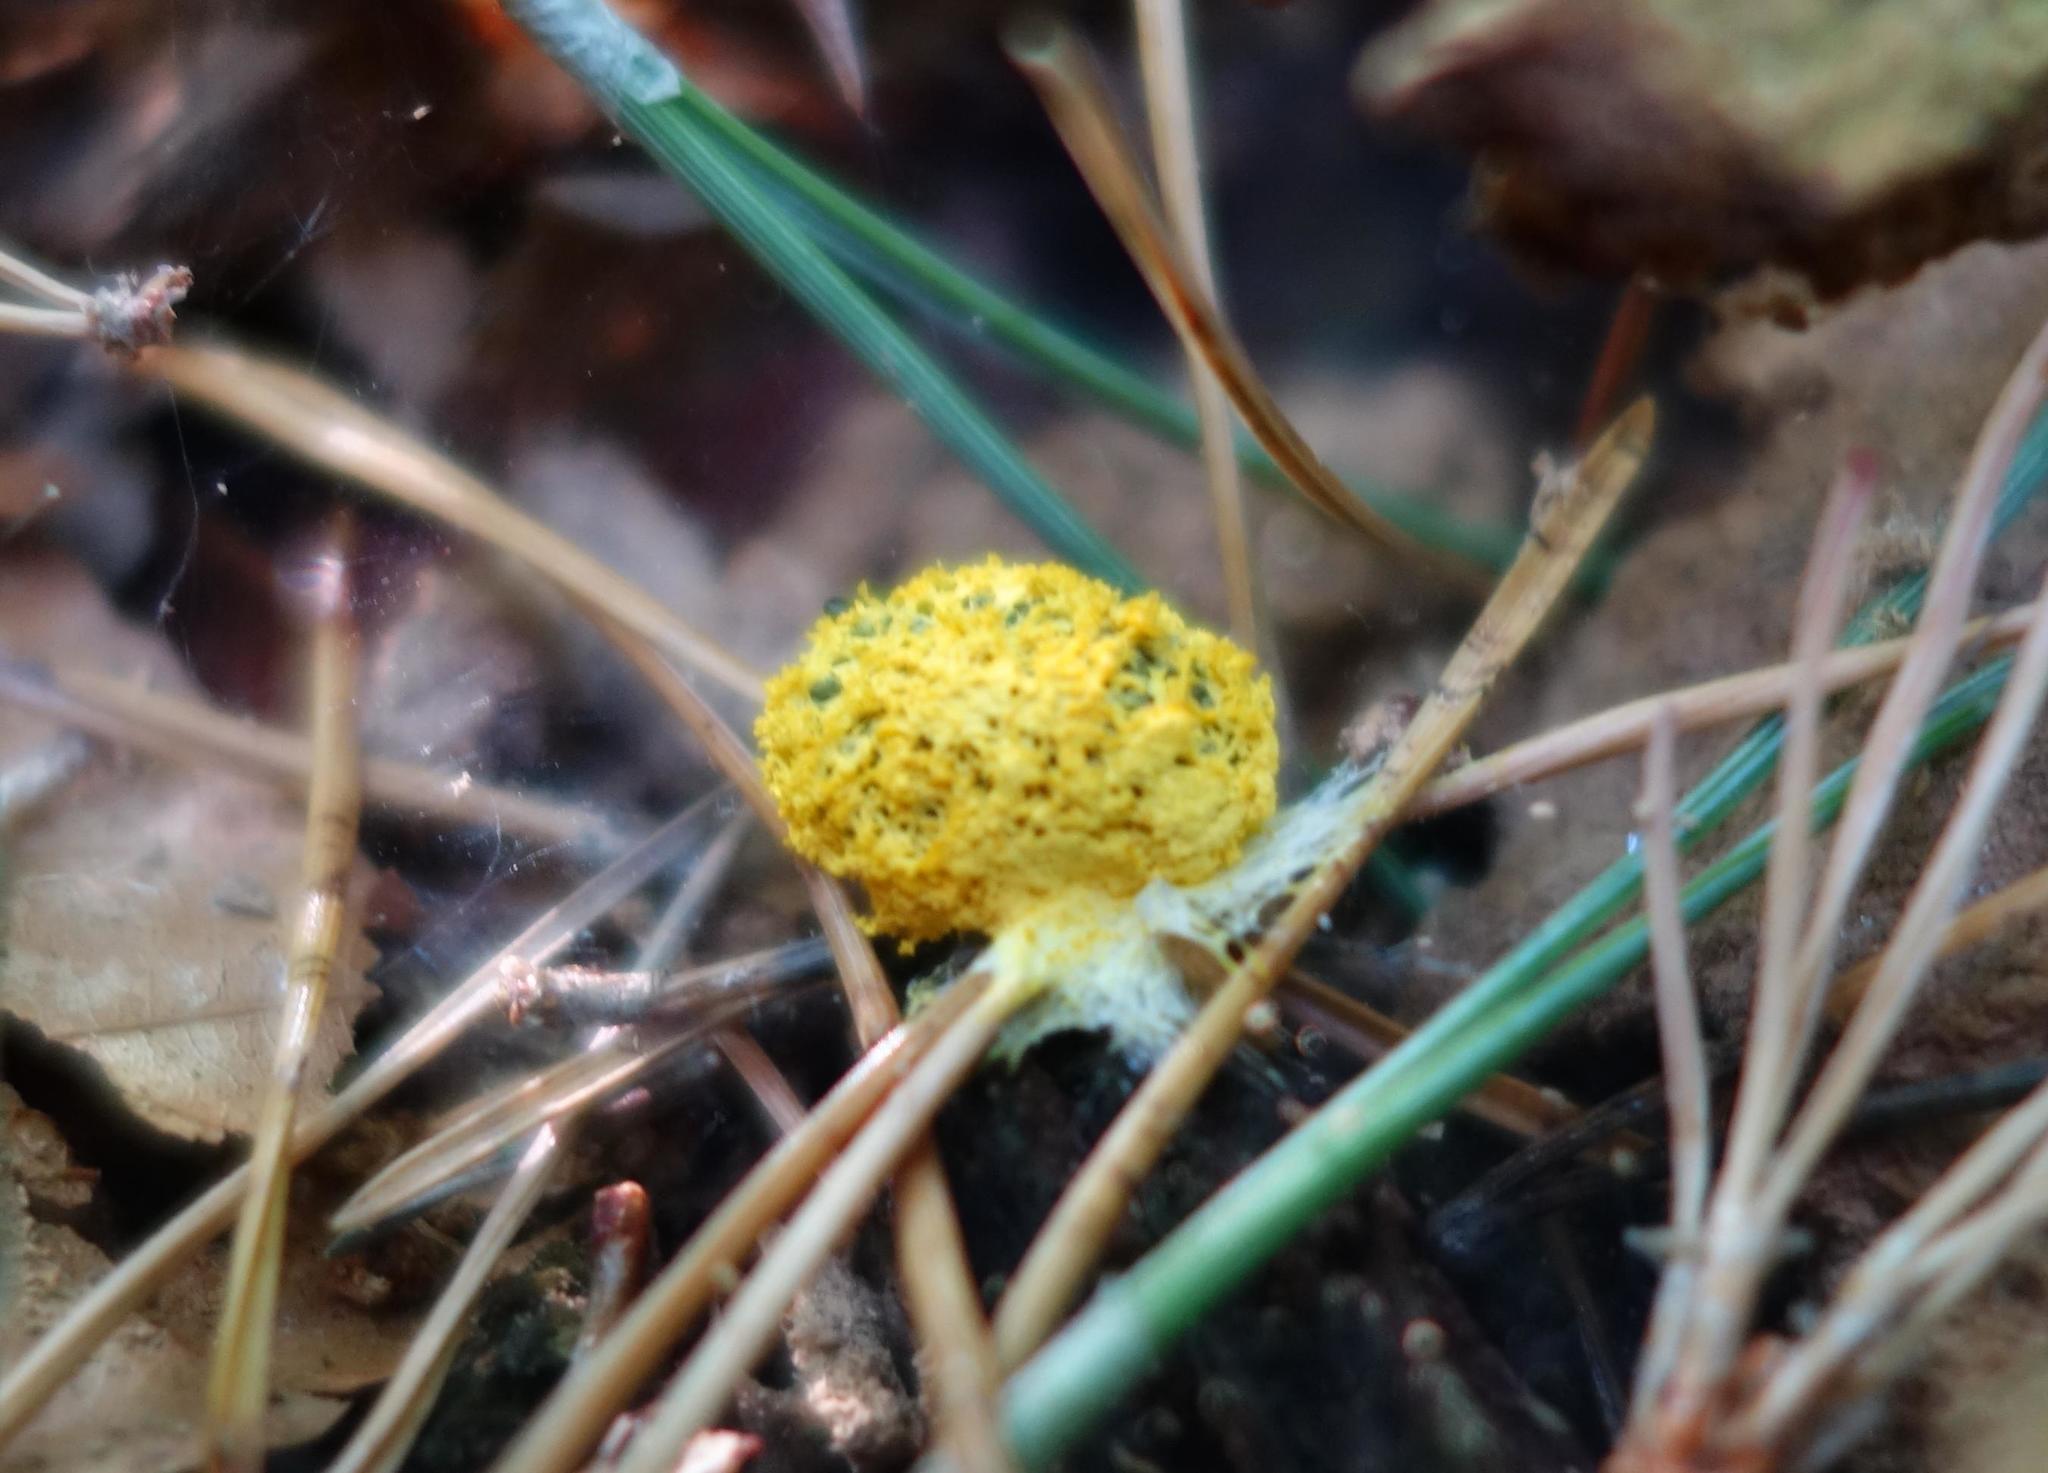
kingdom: Protozoa
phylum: Mycetozoa
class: Myxomycetes
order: Physarales
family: Physaraceae
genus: Fuligo
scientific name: Fuligo septica
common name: Dog vomit slime mold
